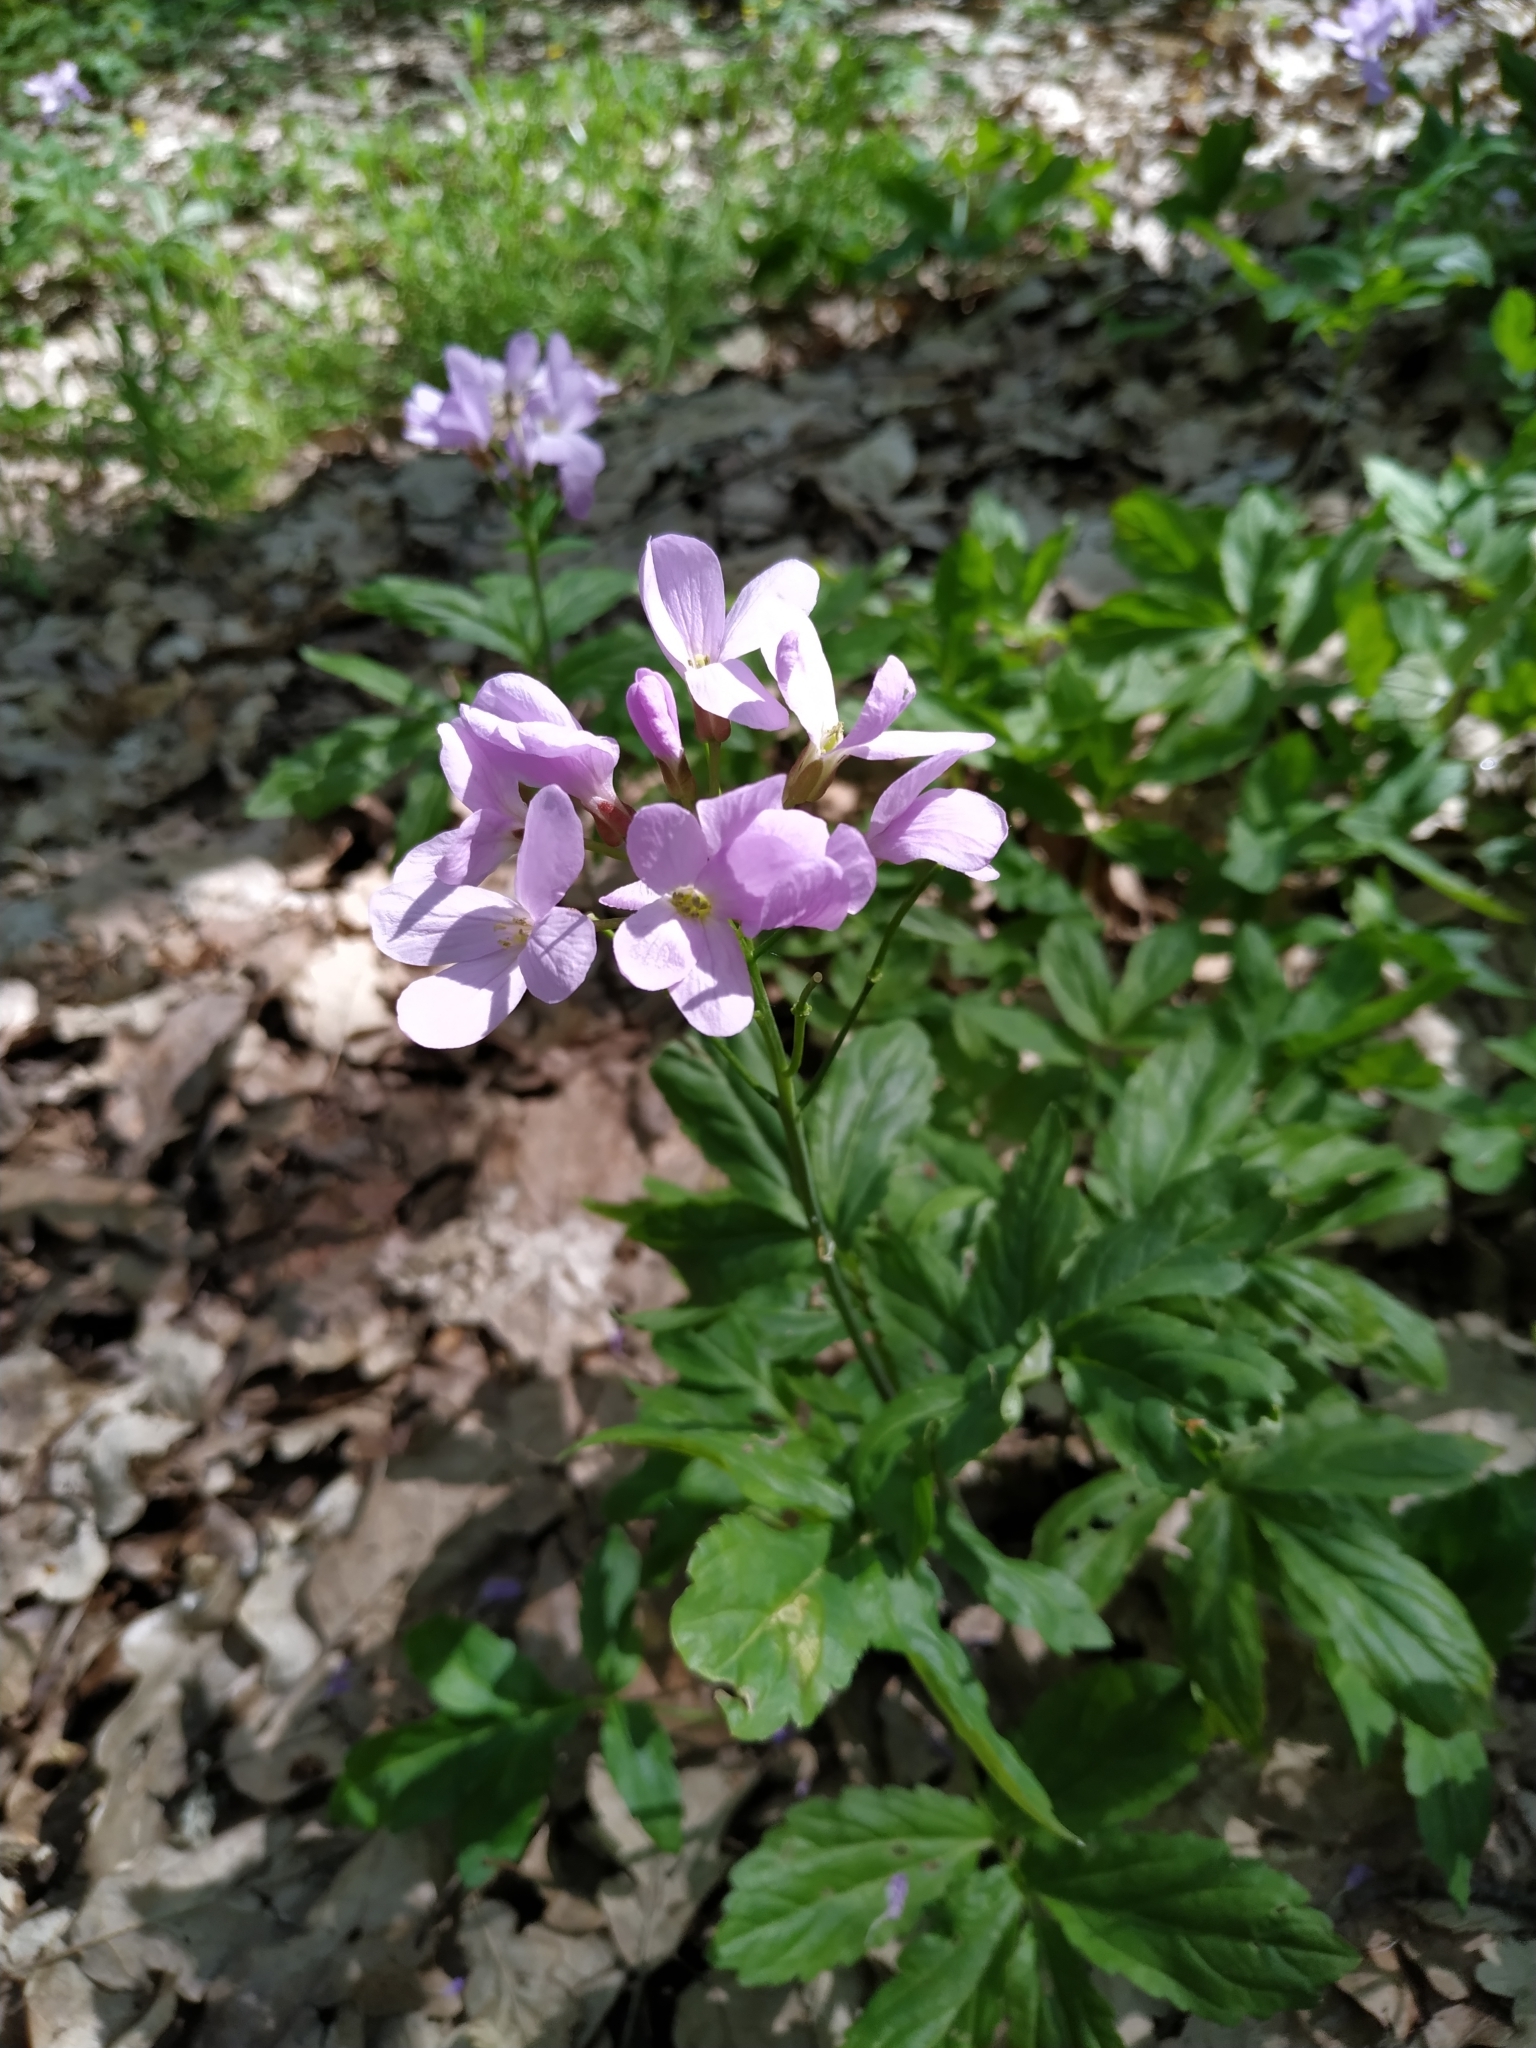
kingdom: Plantae
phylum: Tracheophyta
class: Magnoliopsida
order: Brassicales
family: Brassicaceae
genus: Cardamine
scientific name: Cardamine quinquefolia
